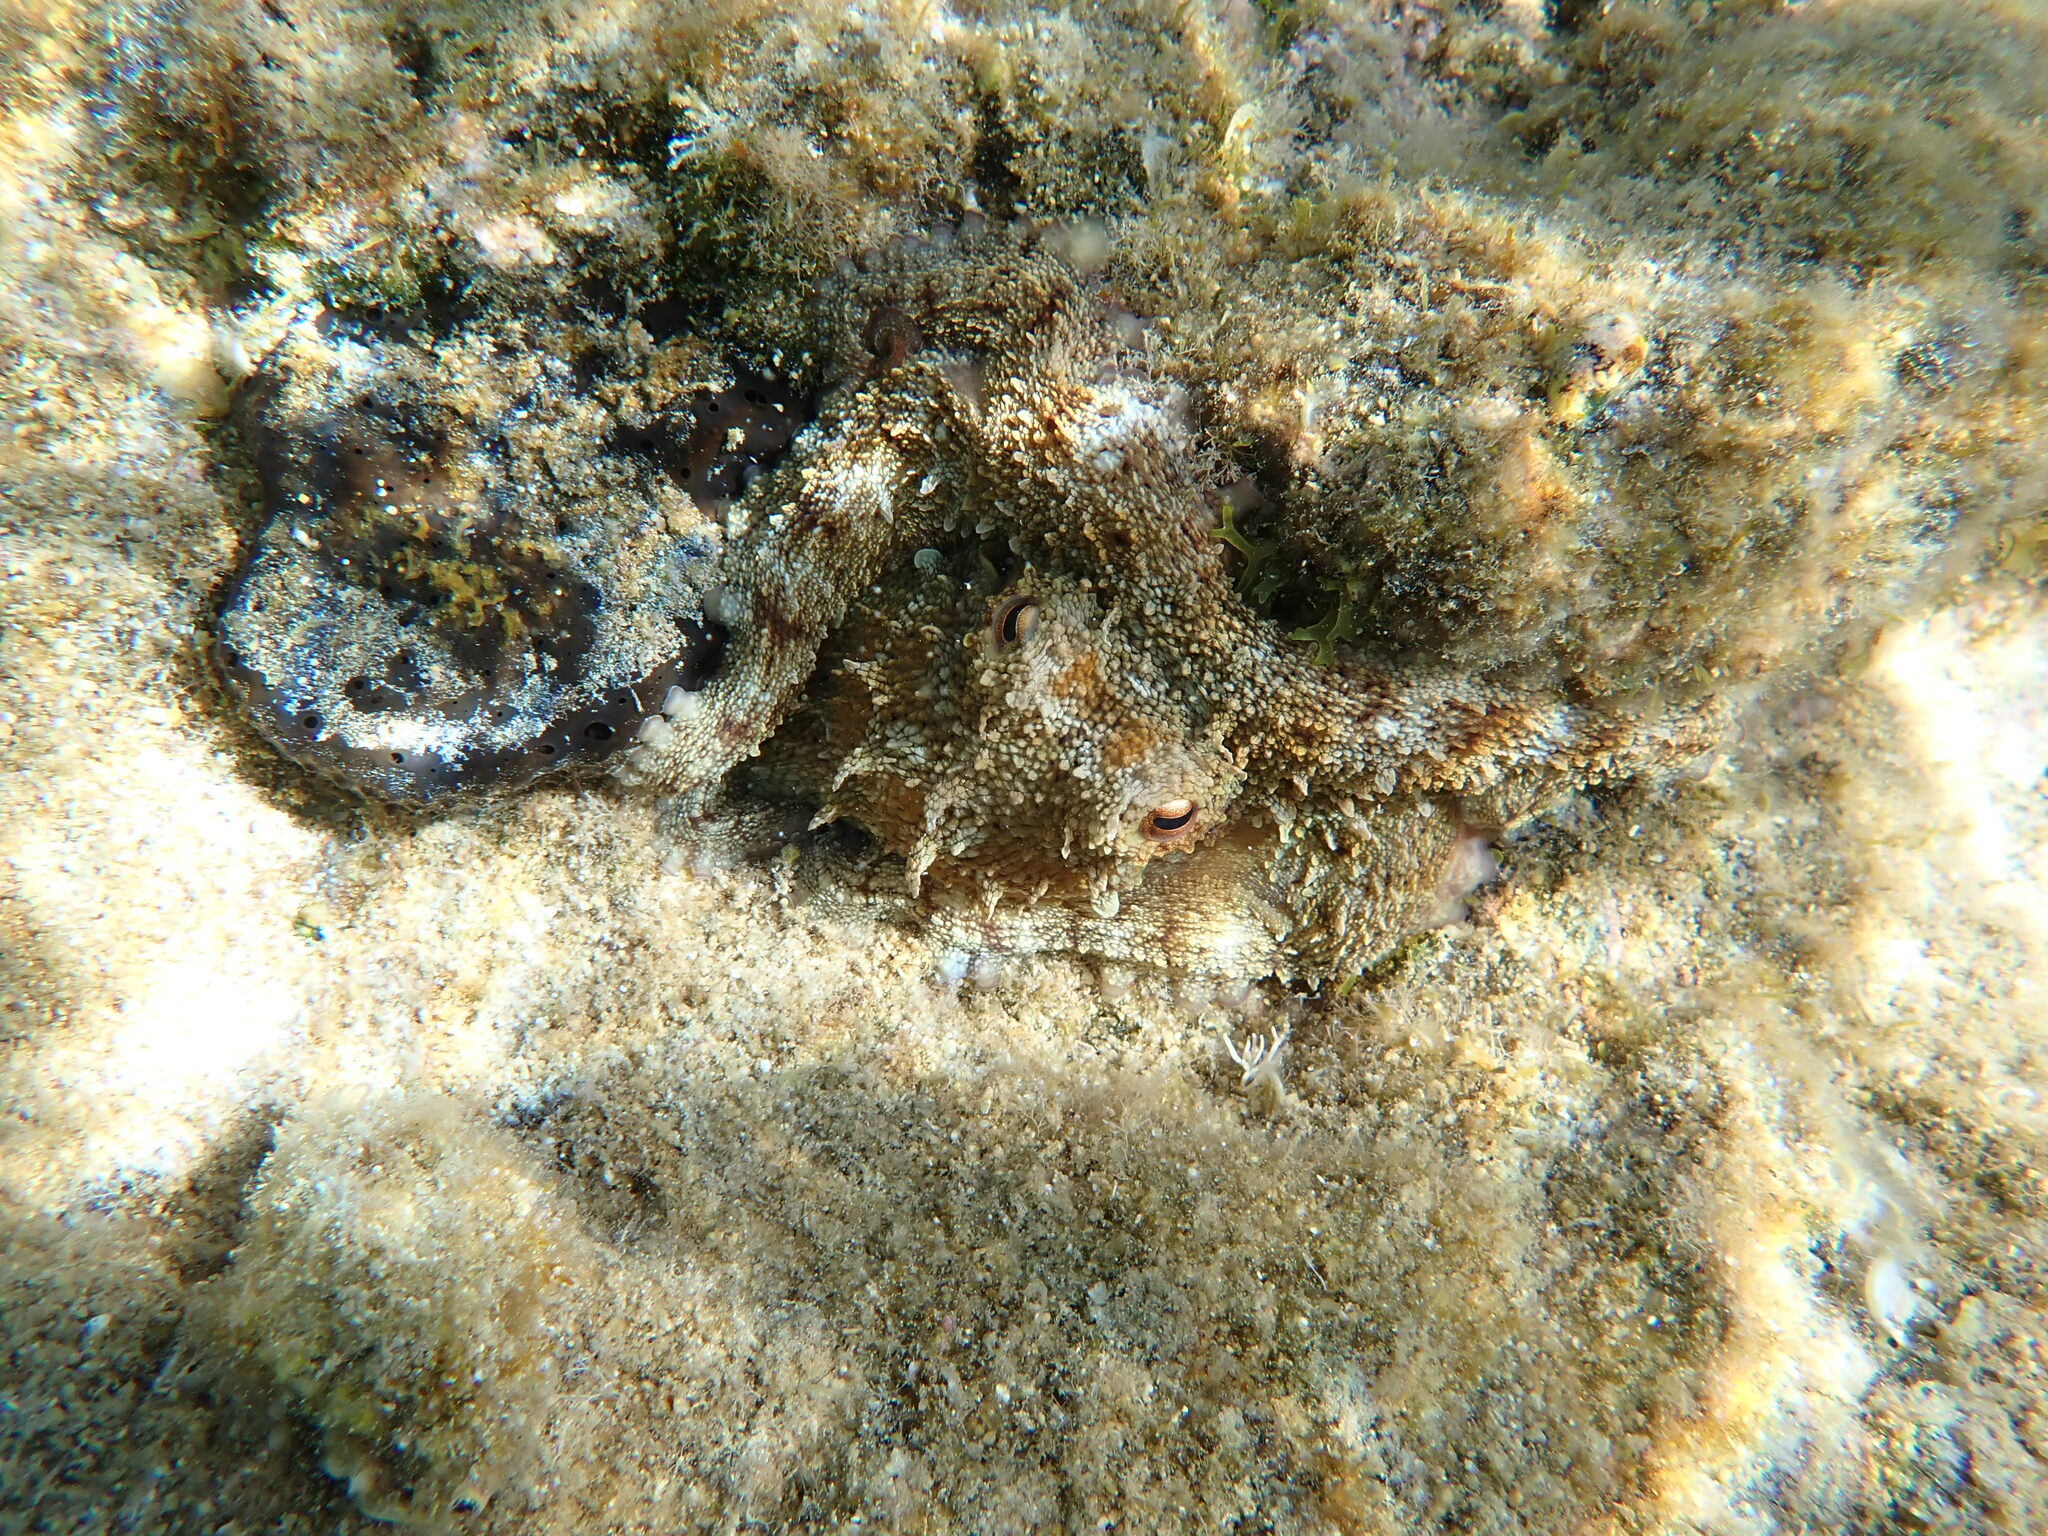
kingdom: Animalia
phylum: Mollusca
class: Cephalopoda
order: Octopoda
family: Octopodidae
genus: Octopus
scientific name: Octopus vulgaris
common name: Common octopus
